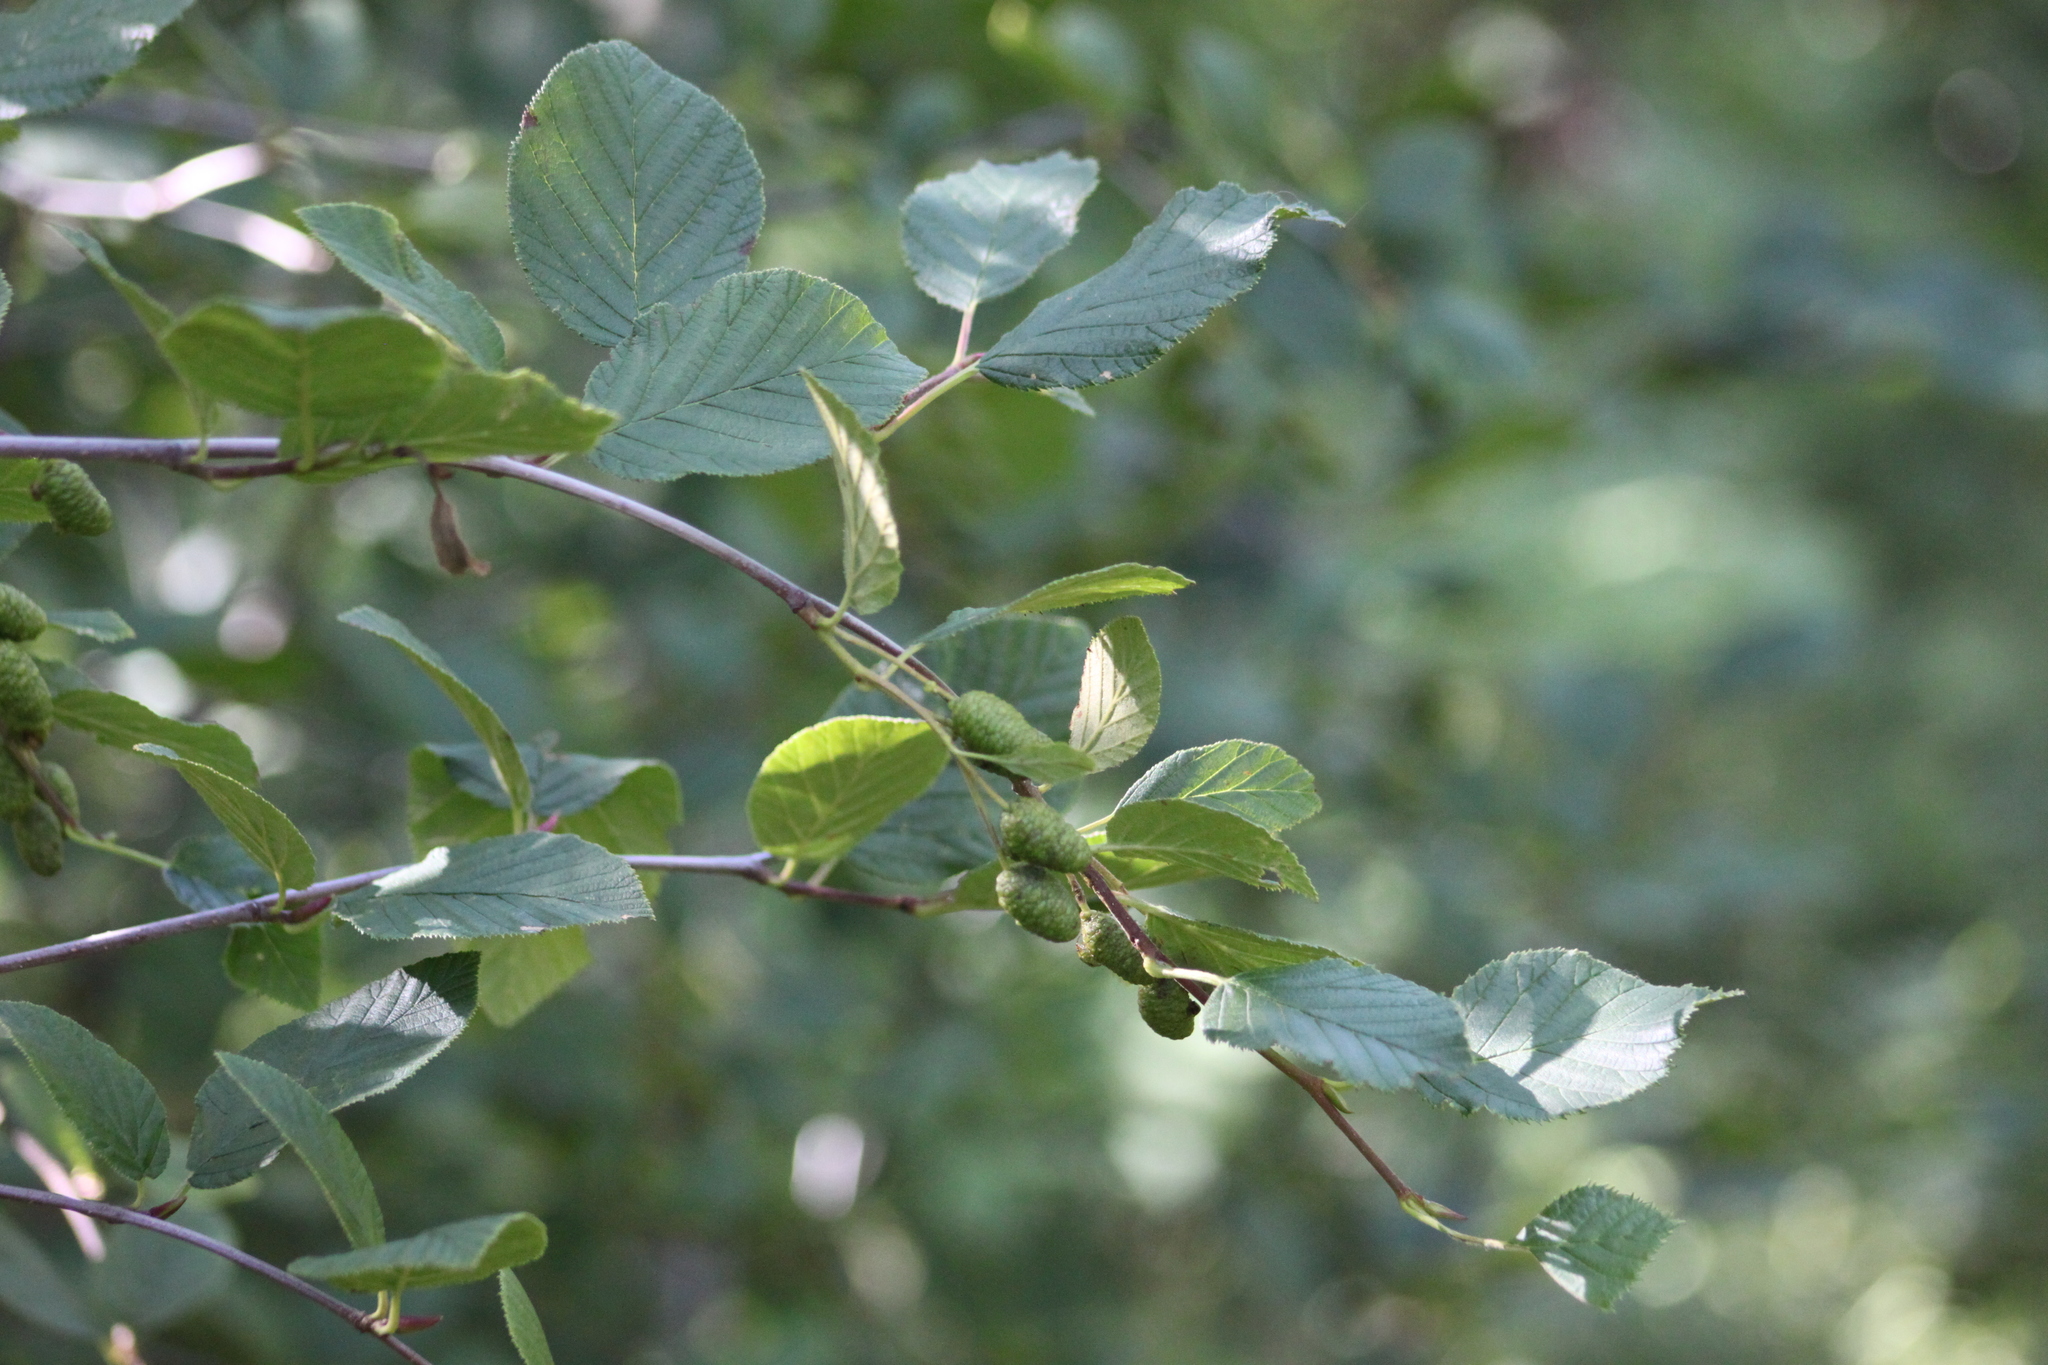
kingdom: Plantae
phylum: Tracheophyta
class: Magnoliopsida
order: Fagales
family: Betulaceae
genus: Alnus
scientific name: Alnus alnobetula
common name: Green alder
